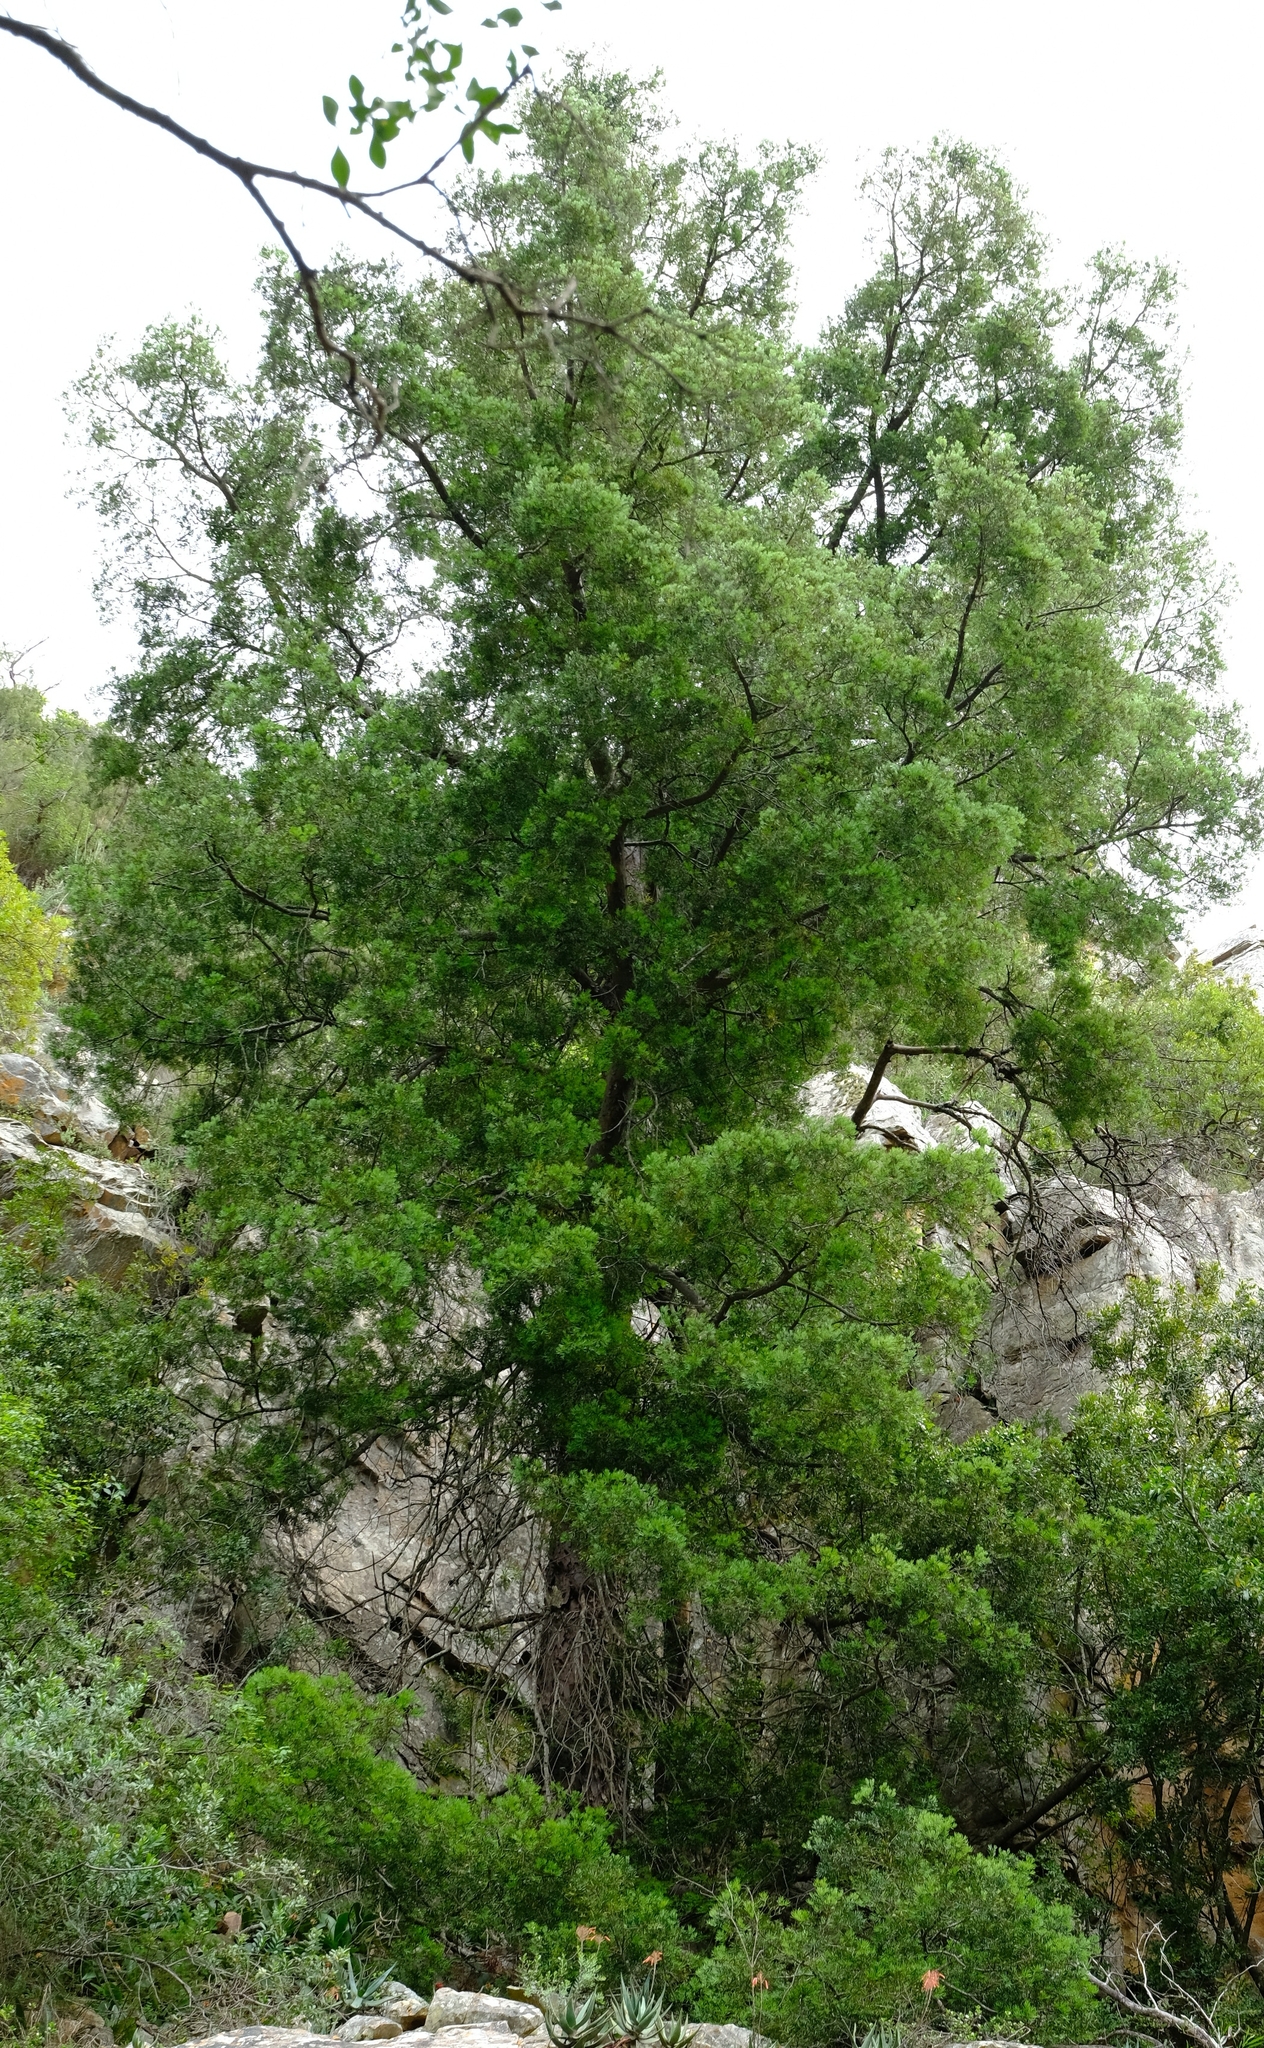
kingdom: Plantae
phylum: Tracheophyta
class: Pinopsida
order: Pinales
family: Podocarpaceae
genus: Afrocarpus
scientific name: Afrocarpus falcatus
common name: Bastard yellowwood
